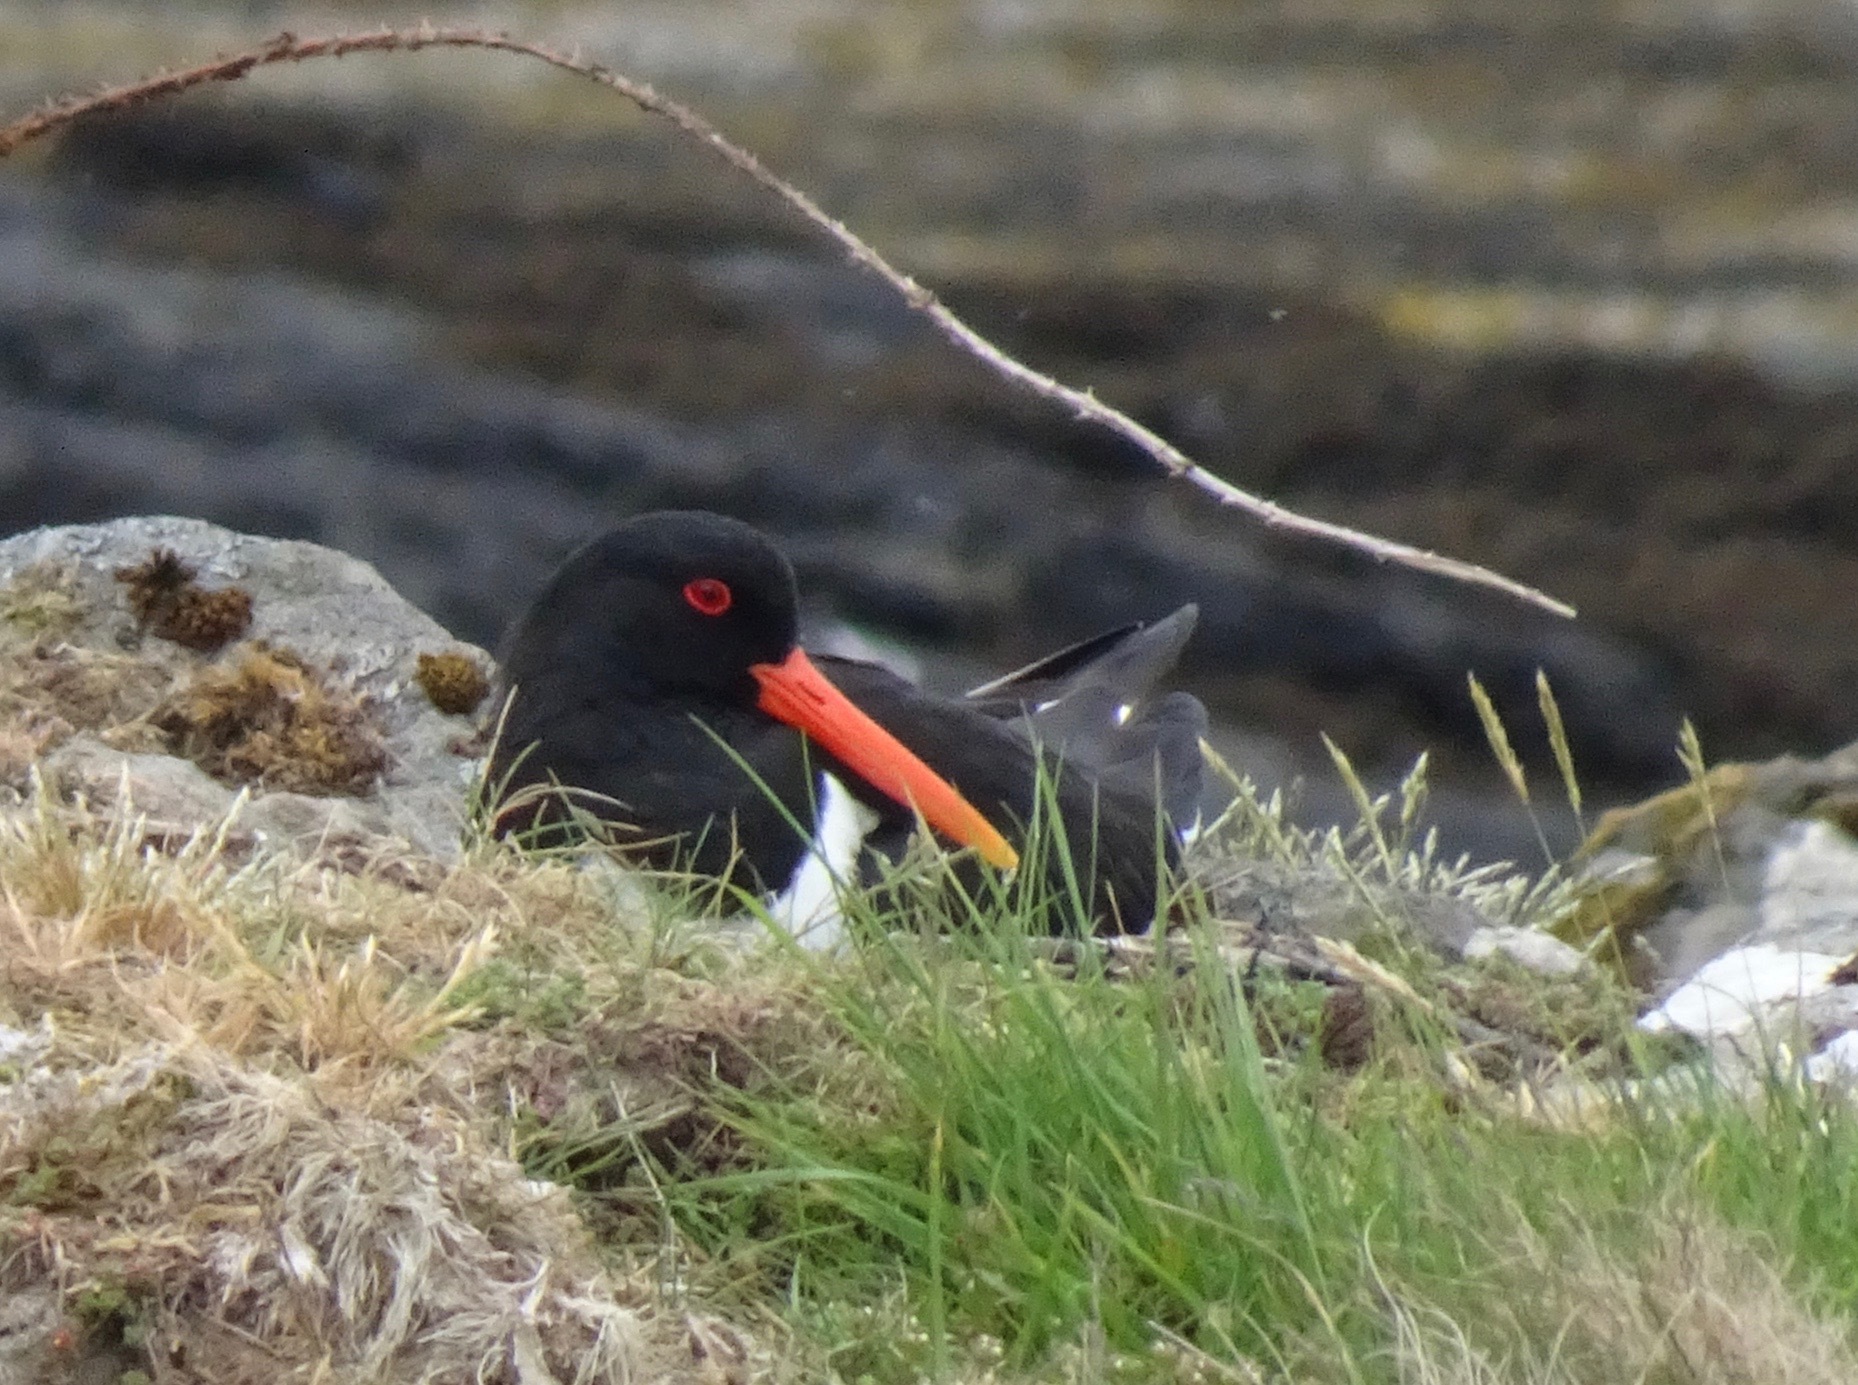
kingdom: Animalia
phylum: Chordata
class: Aves
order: Charadriiformes
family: Haematopodidae
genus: Haematopus
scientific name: Haematopus ostralegus
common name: Eurasian oystercatcher
